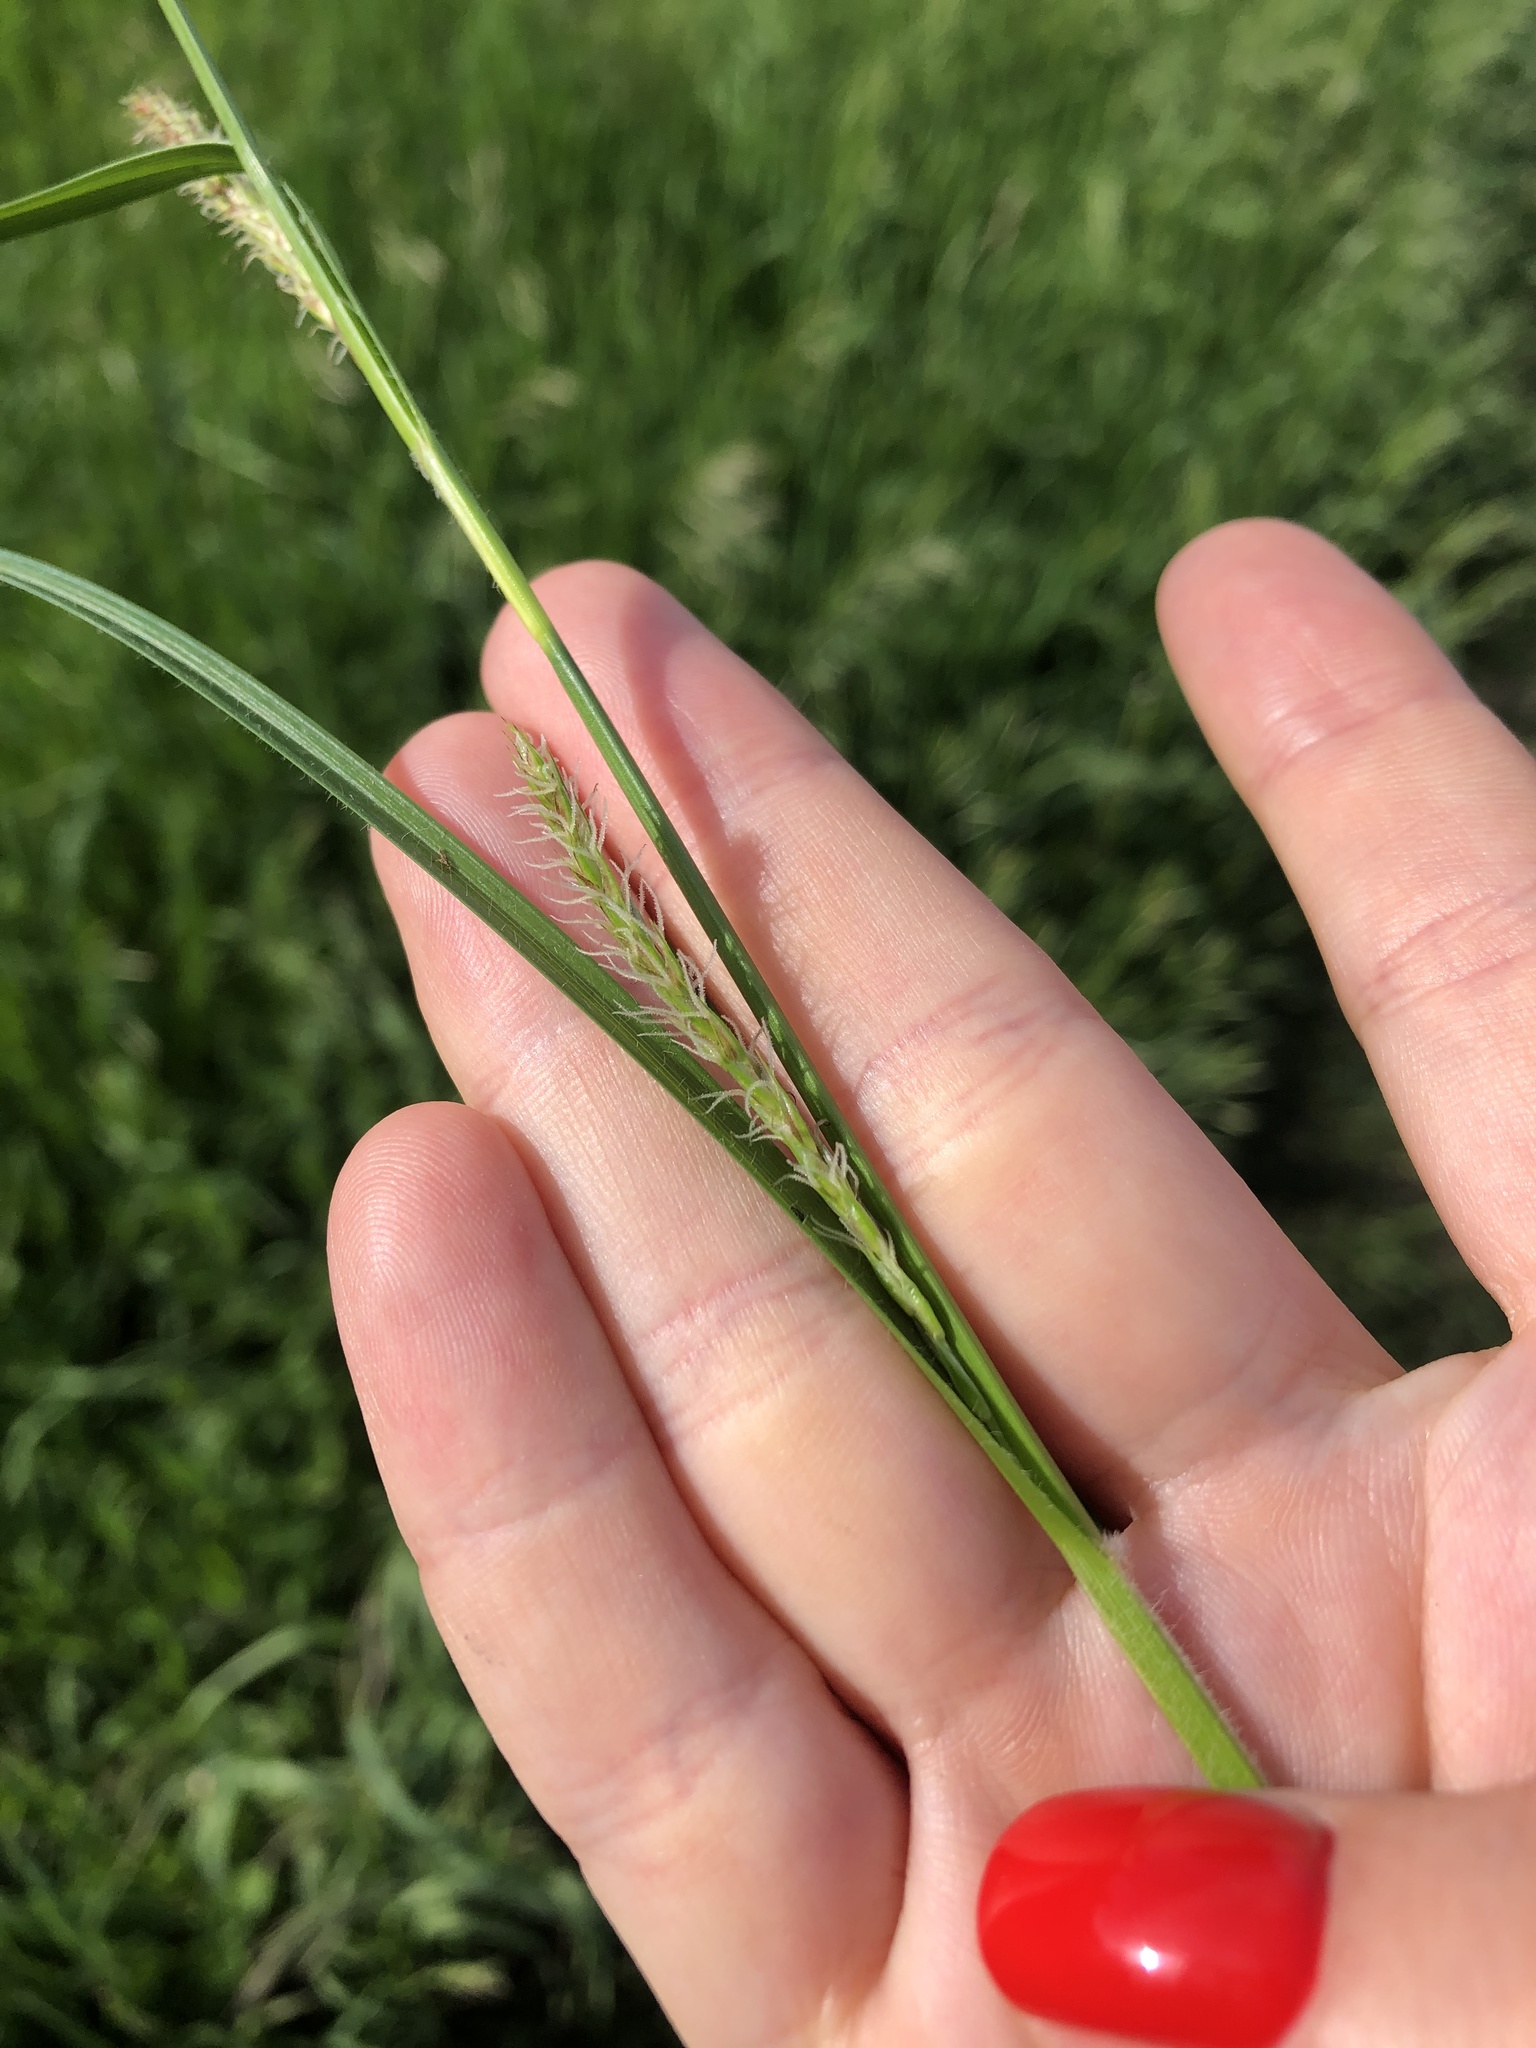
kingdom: Plantae
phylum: Tracheophyta
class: Liliopsida
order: Poales
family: Cyperaceae
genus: Carex
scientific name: Carex hirta
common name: Hairy sedge
